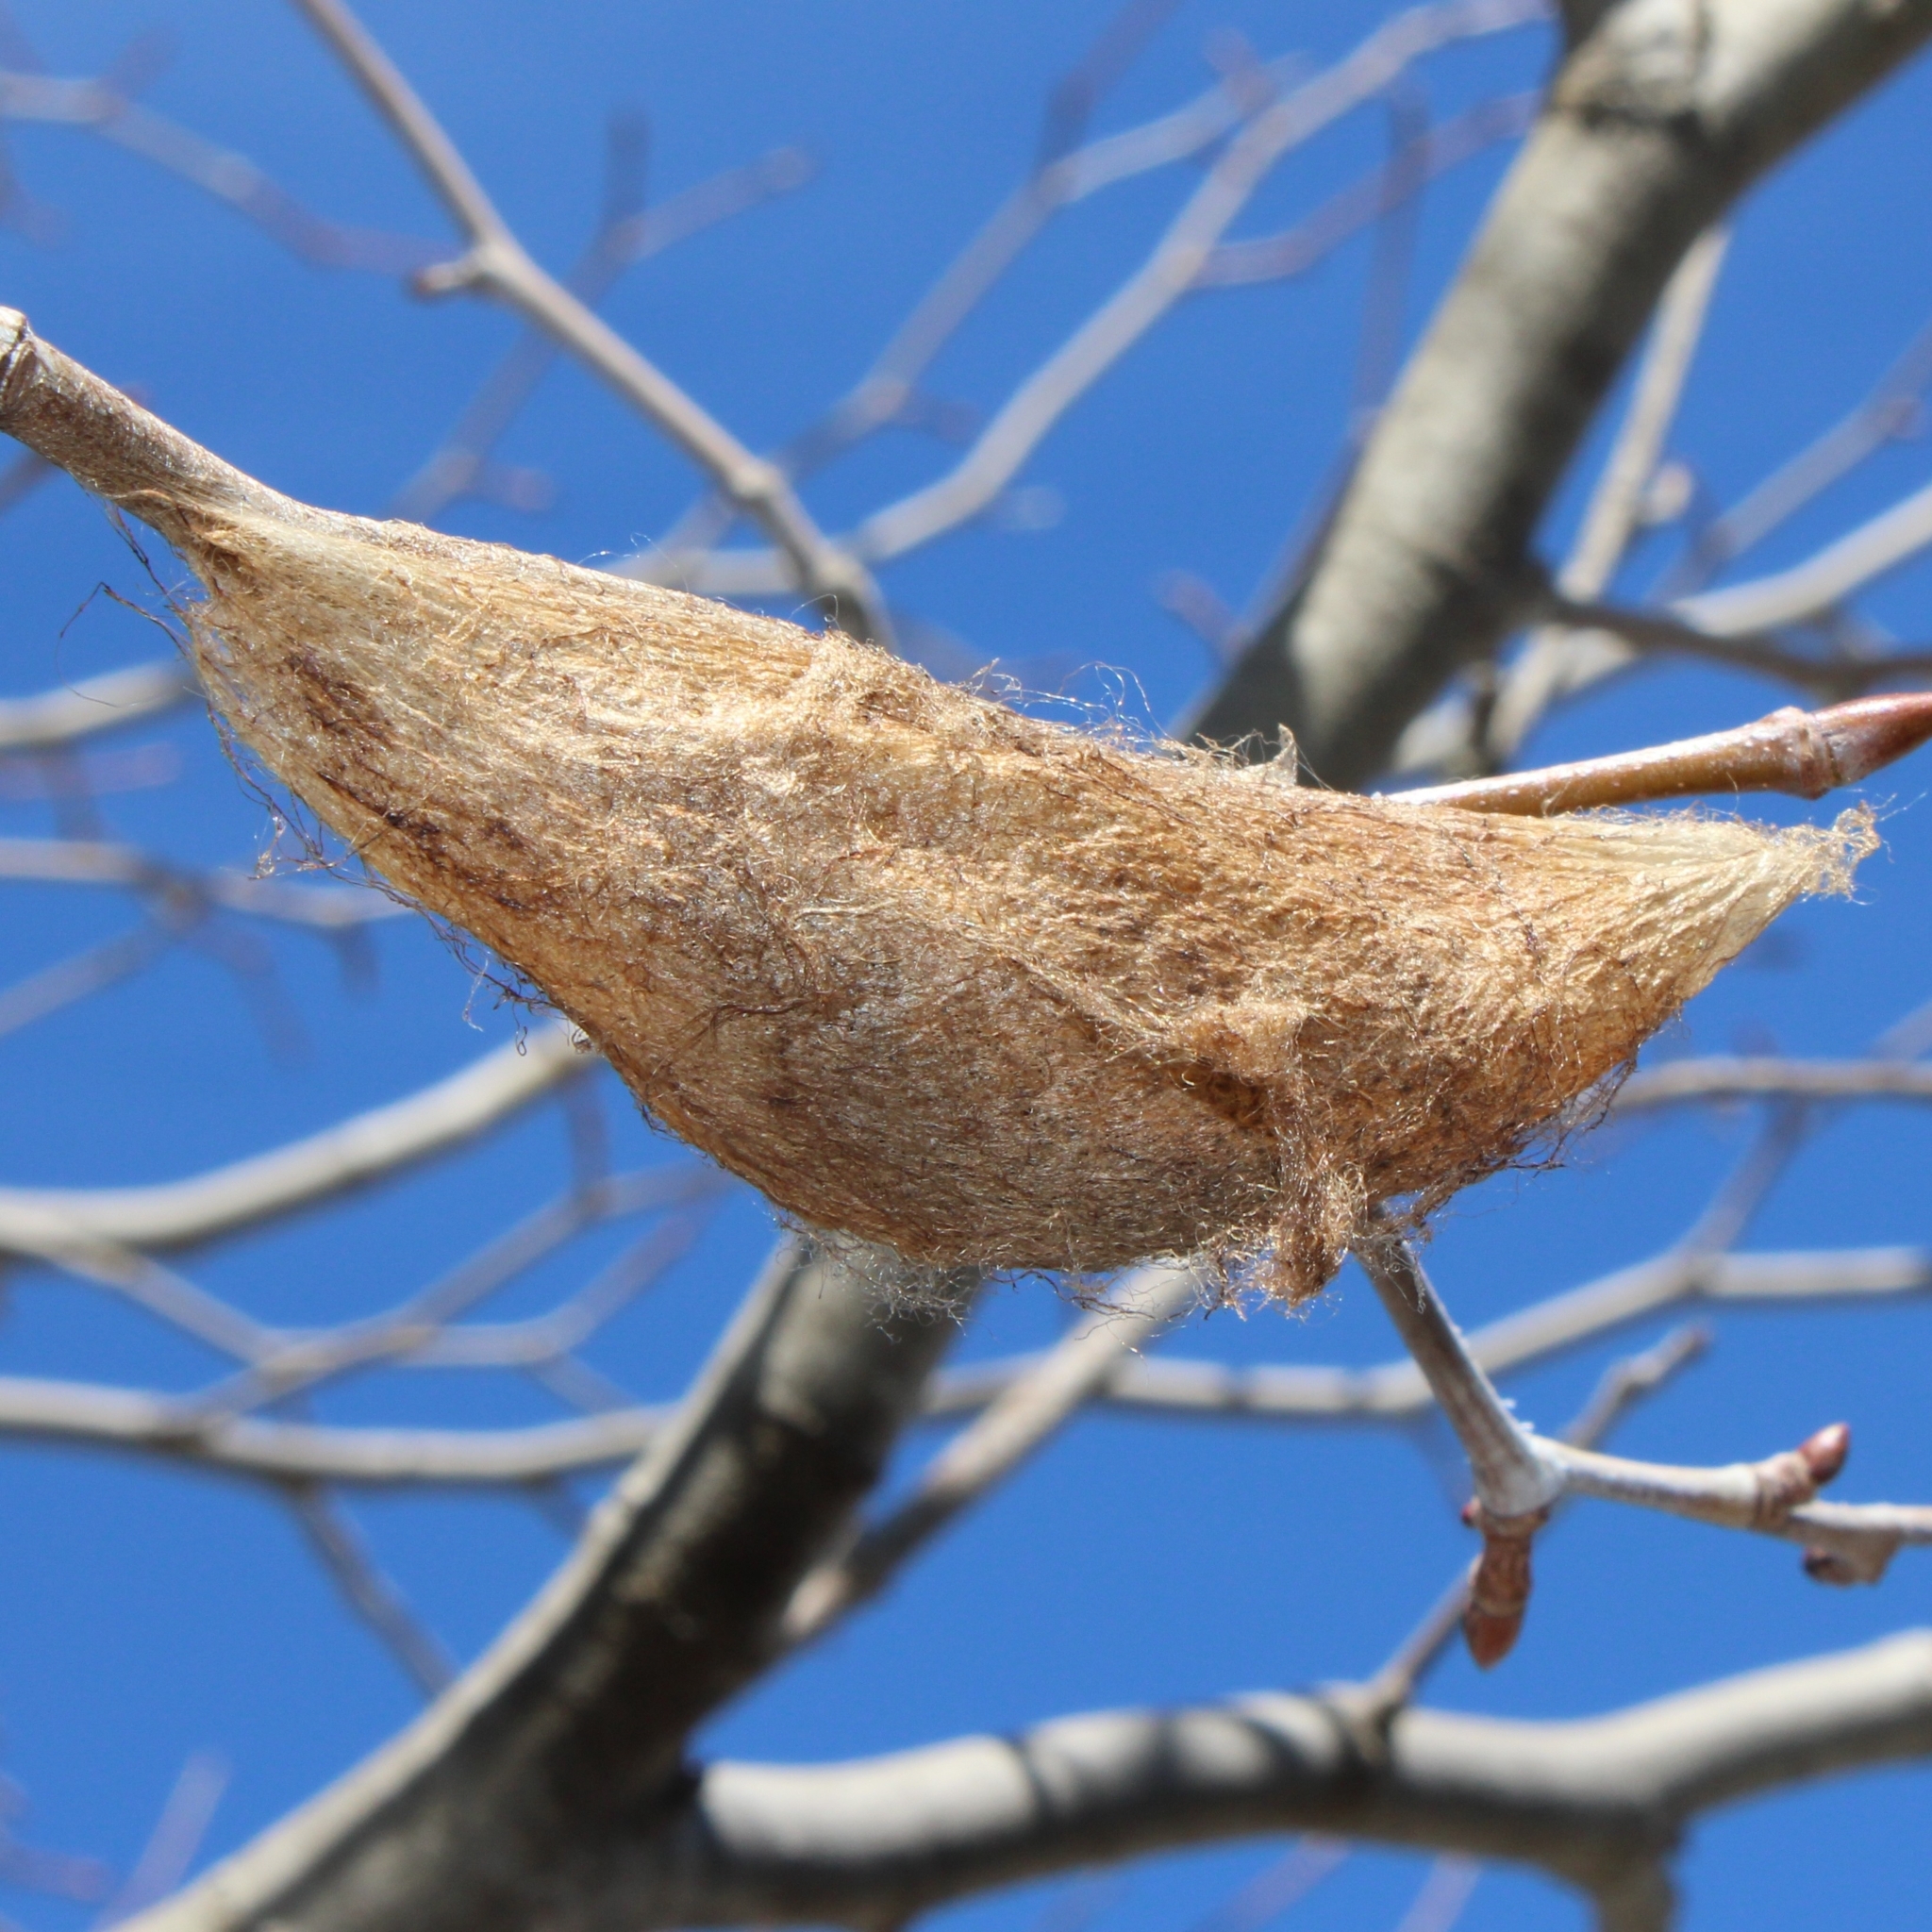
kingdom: Animalia
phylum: Arthropoda
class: Insecta
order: Lepidoptera
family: Saturniidae
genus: Hyalophora
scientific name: Hyalophora cecropia
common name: Cecropia silkmoth
